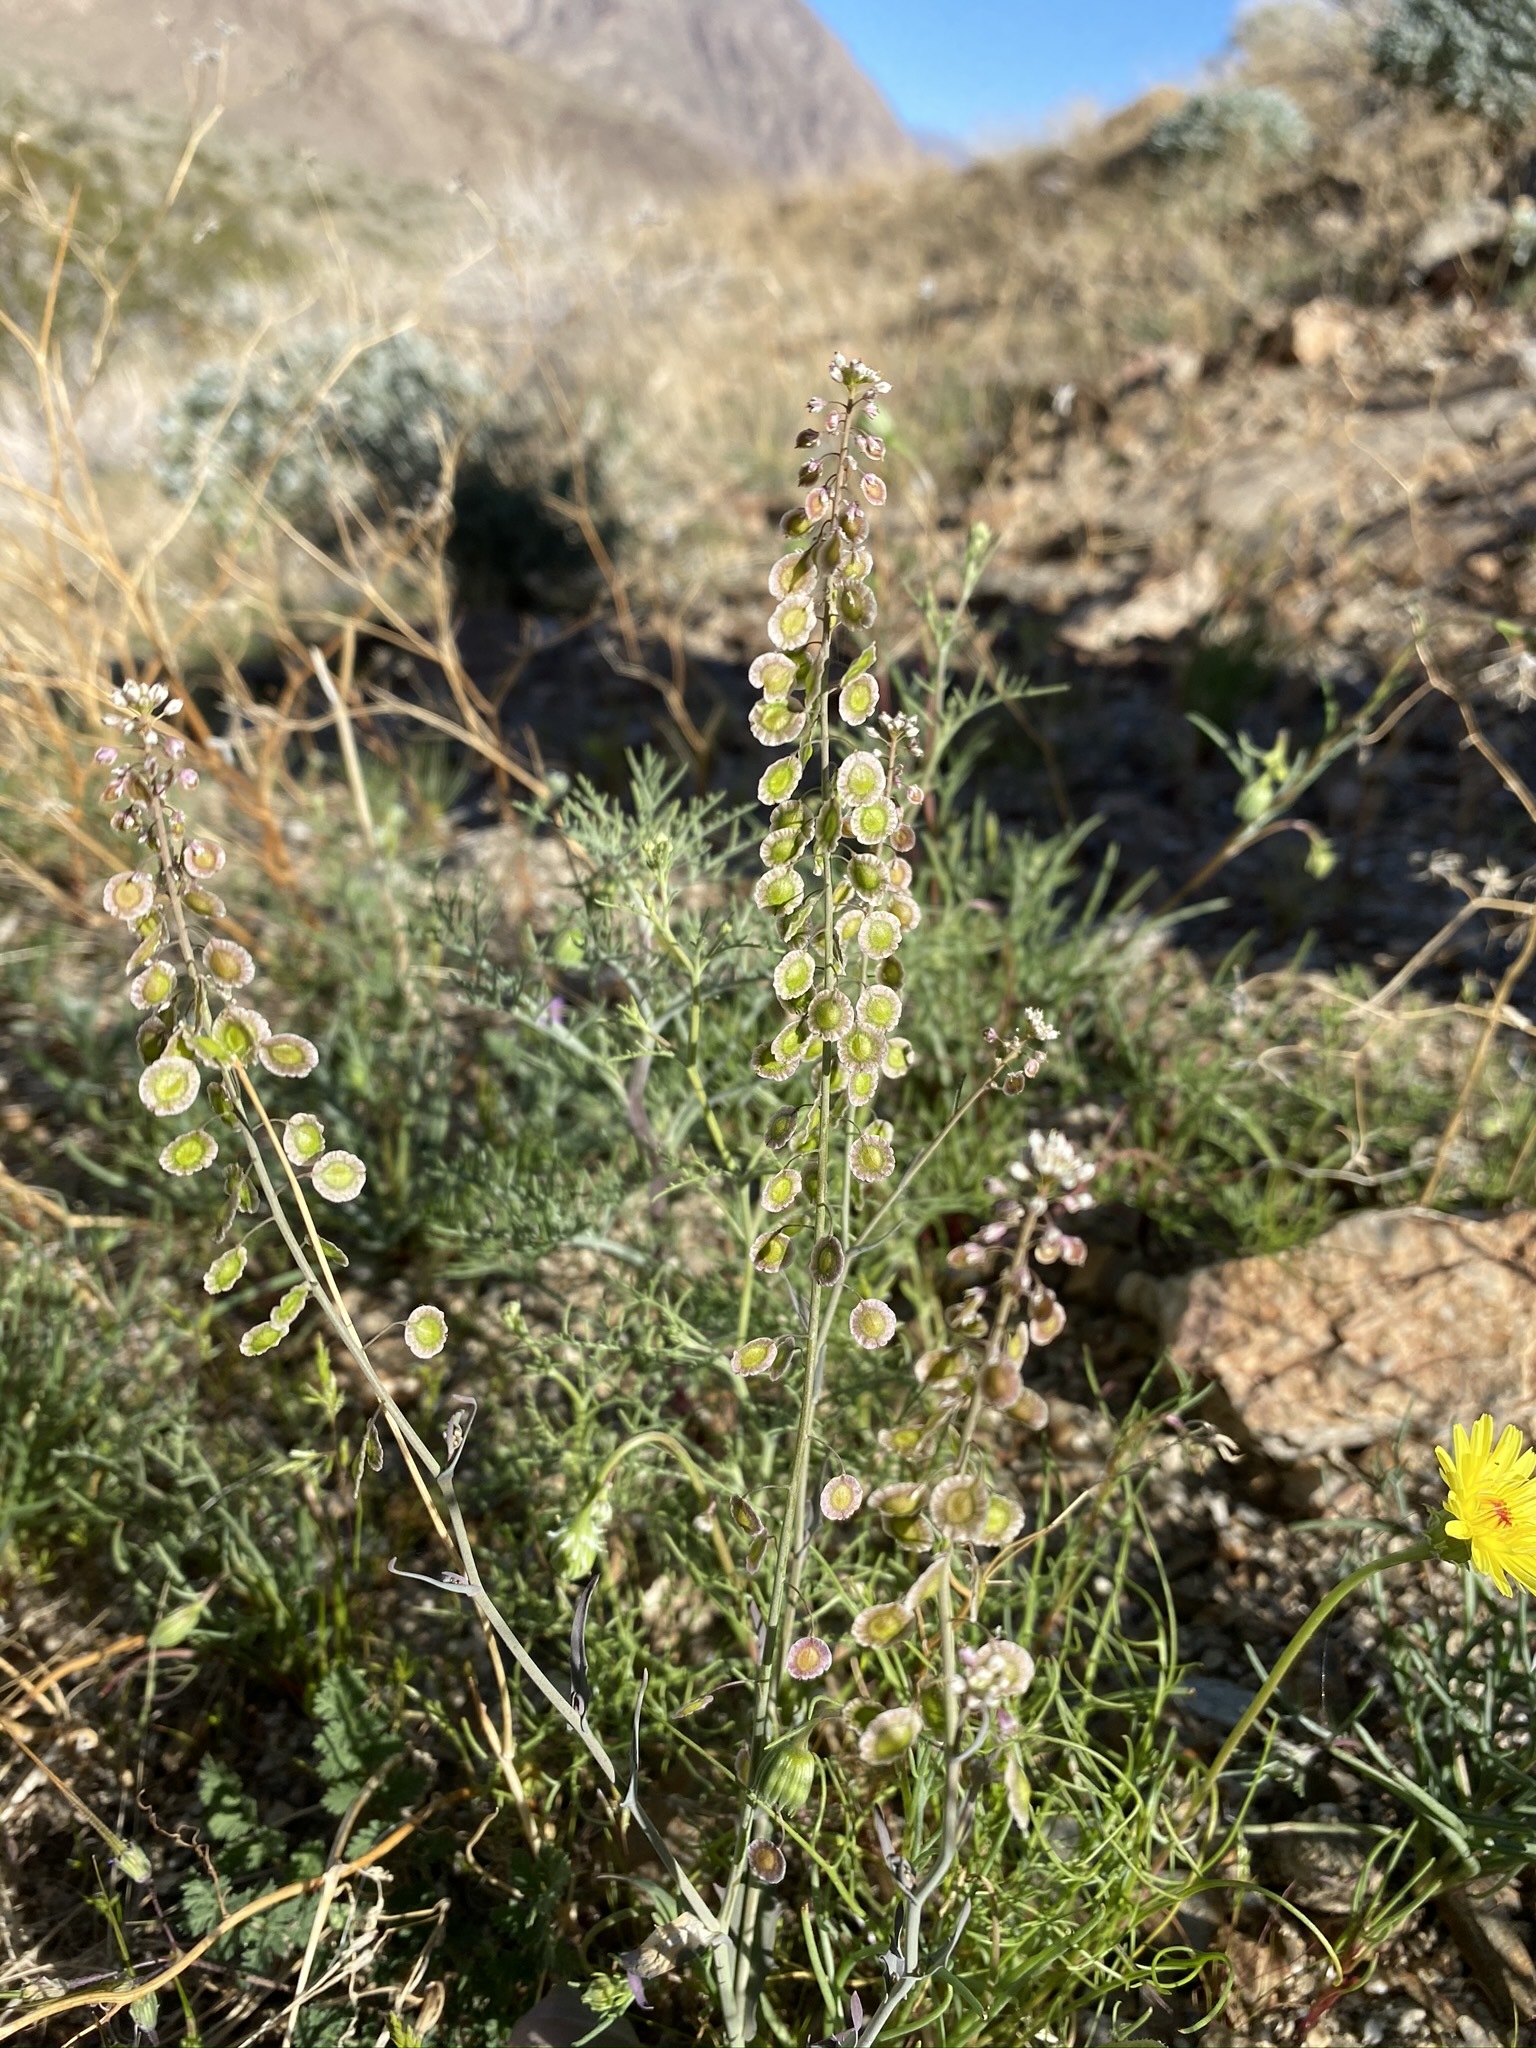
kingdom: Plantae
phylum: Tracheophyta
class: Magnoliopsida
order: Brassicales
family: Brassicaceae
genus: Thysanocarpus
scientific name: Thysanocarpus curvipes
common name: Sand fringepod
